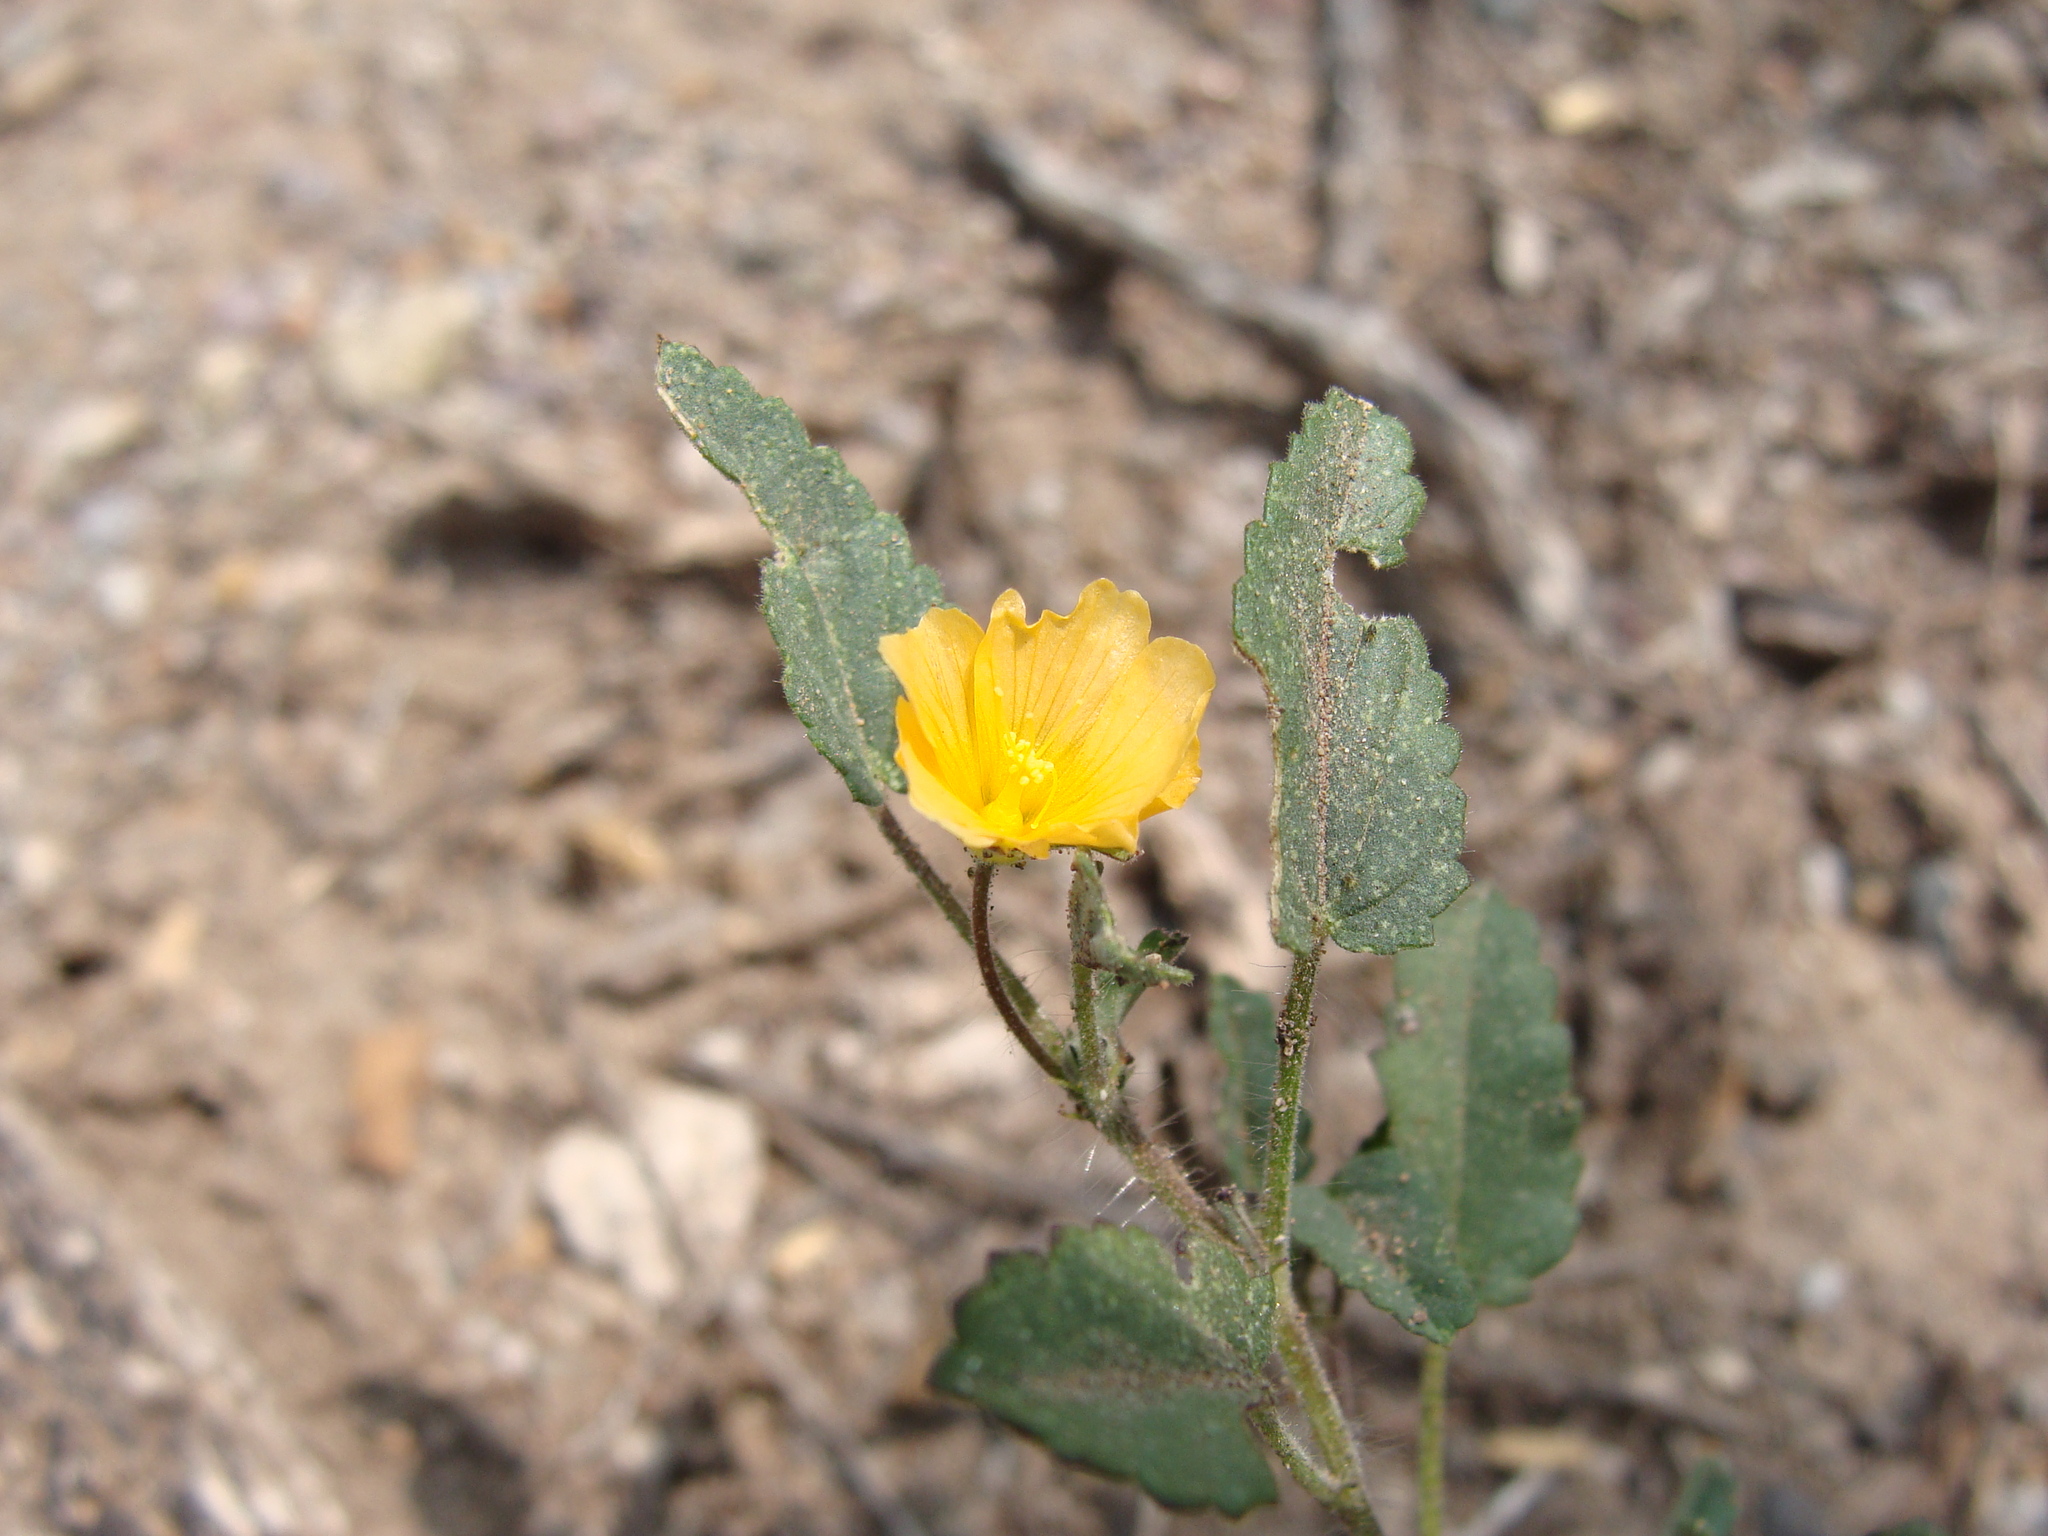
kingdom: Plantae
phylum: Tracheophyta
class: Magnoliopsida
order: Malvales
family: Malvaceae
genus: Sida
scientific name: Sida abutilifolia
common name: Spreading fanpetals
